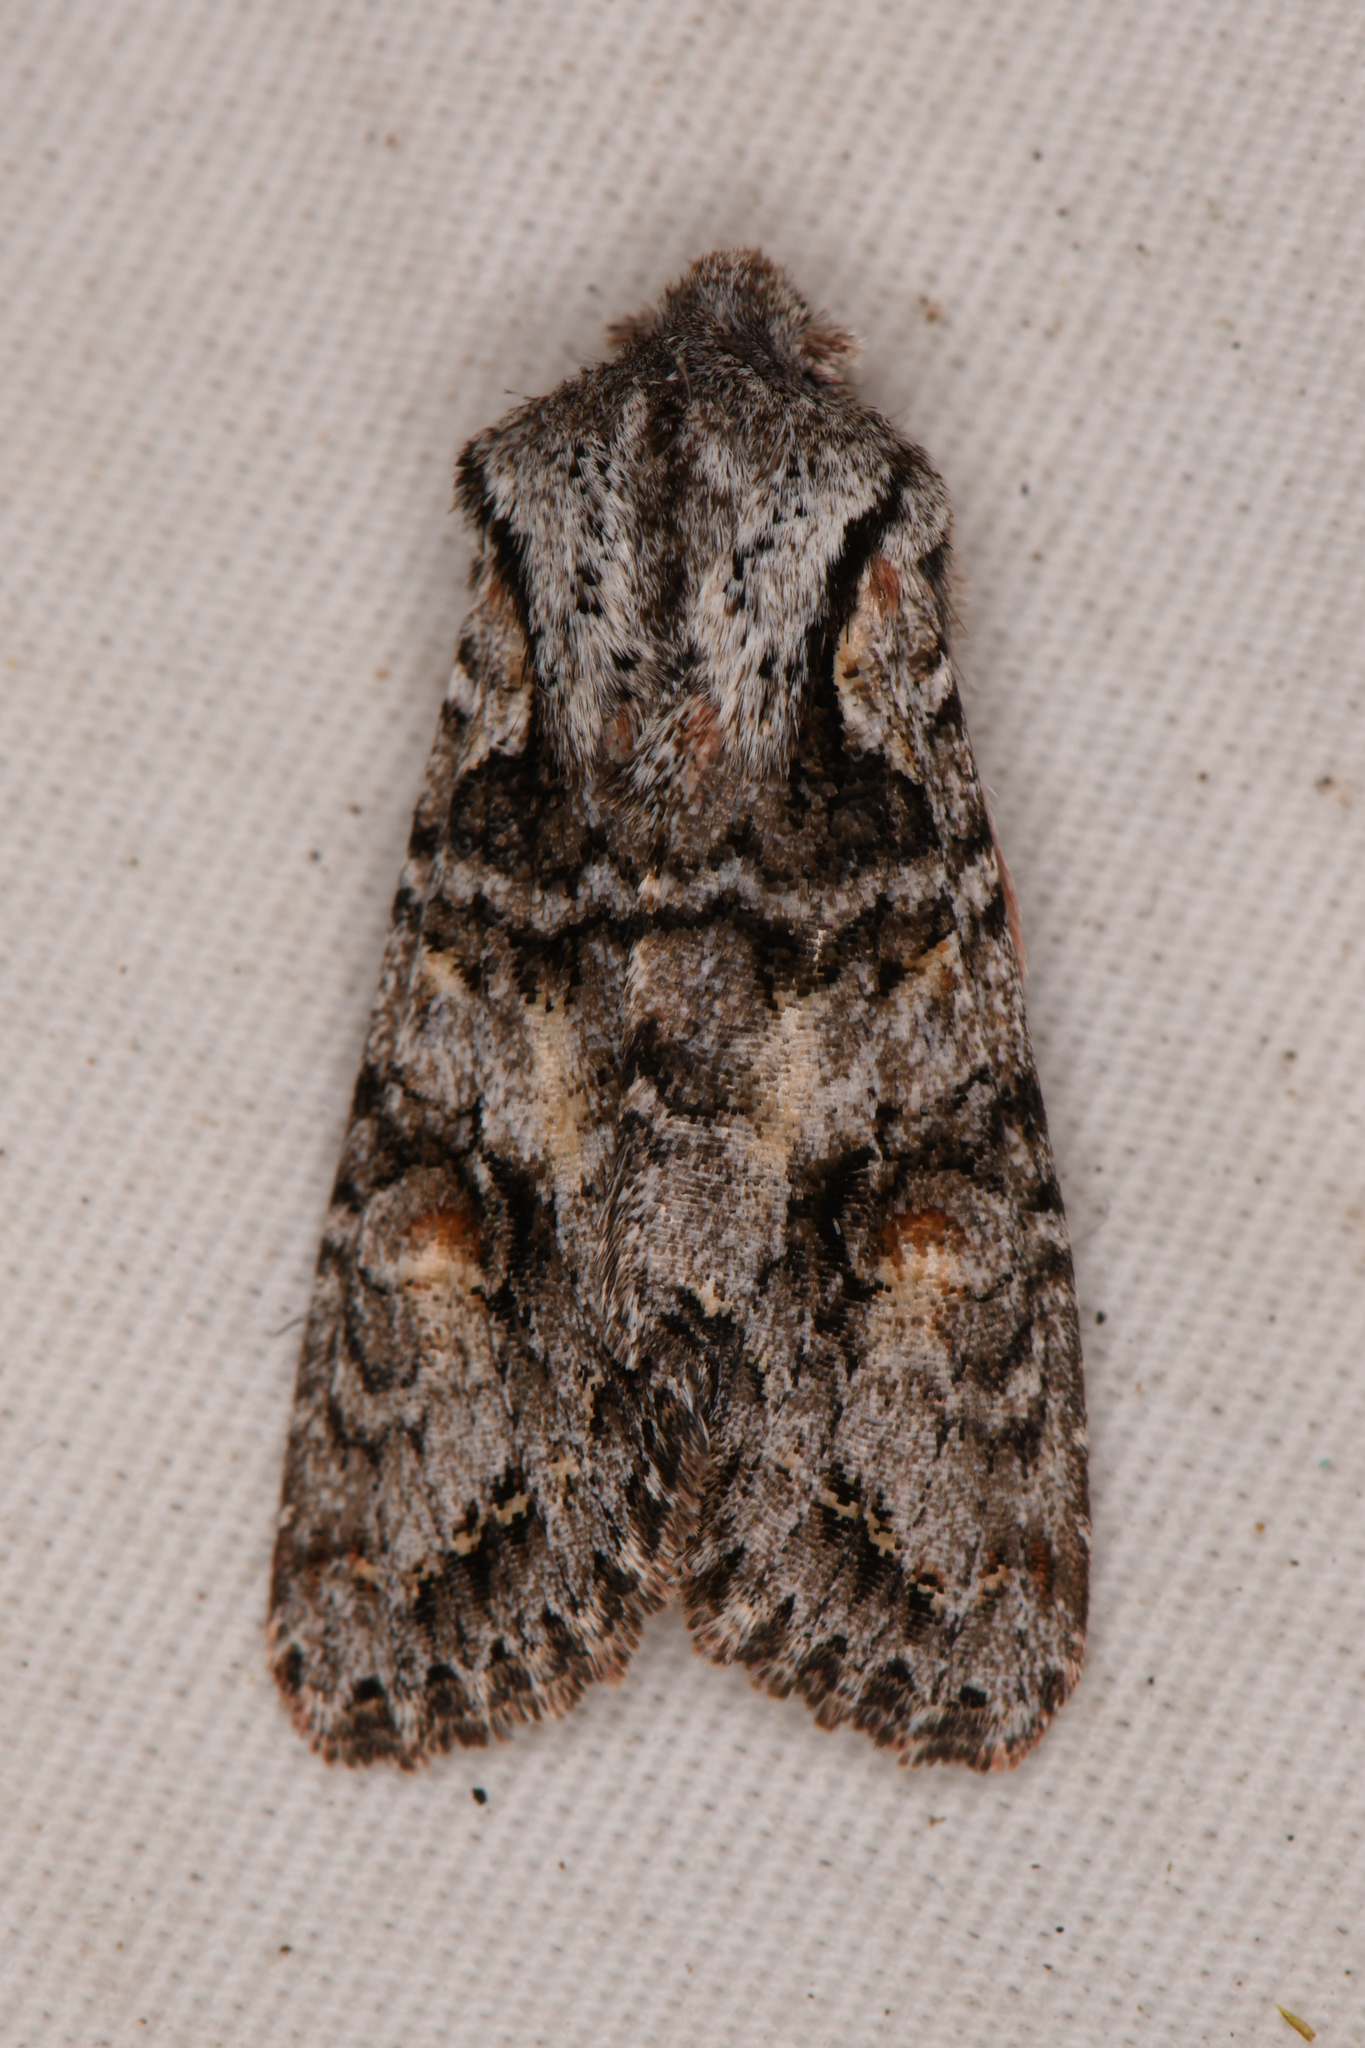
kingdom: Animalia
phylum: Arthropoda
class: Insecta
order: Lepidoptera
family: Noctuidae
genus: Egira
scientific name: Egira hiemalis
